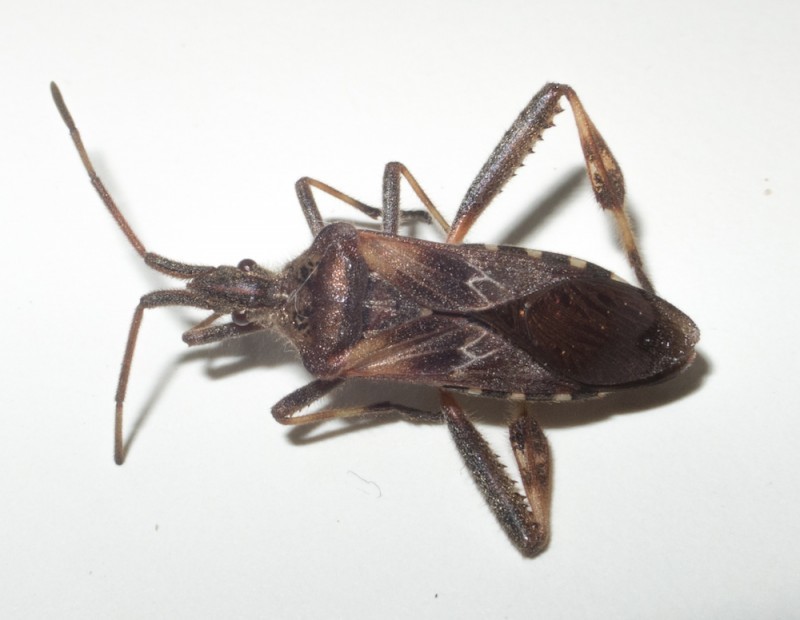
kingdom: Animalia
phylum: Arthropoda
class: Insecta
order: Hemiptera
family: Coreidae
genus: Leptoglossus
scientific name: Leptoglossus occidentalis
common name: Western conifer-seed bug
